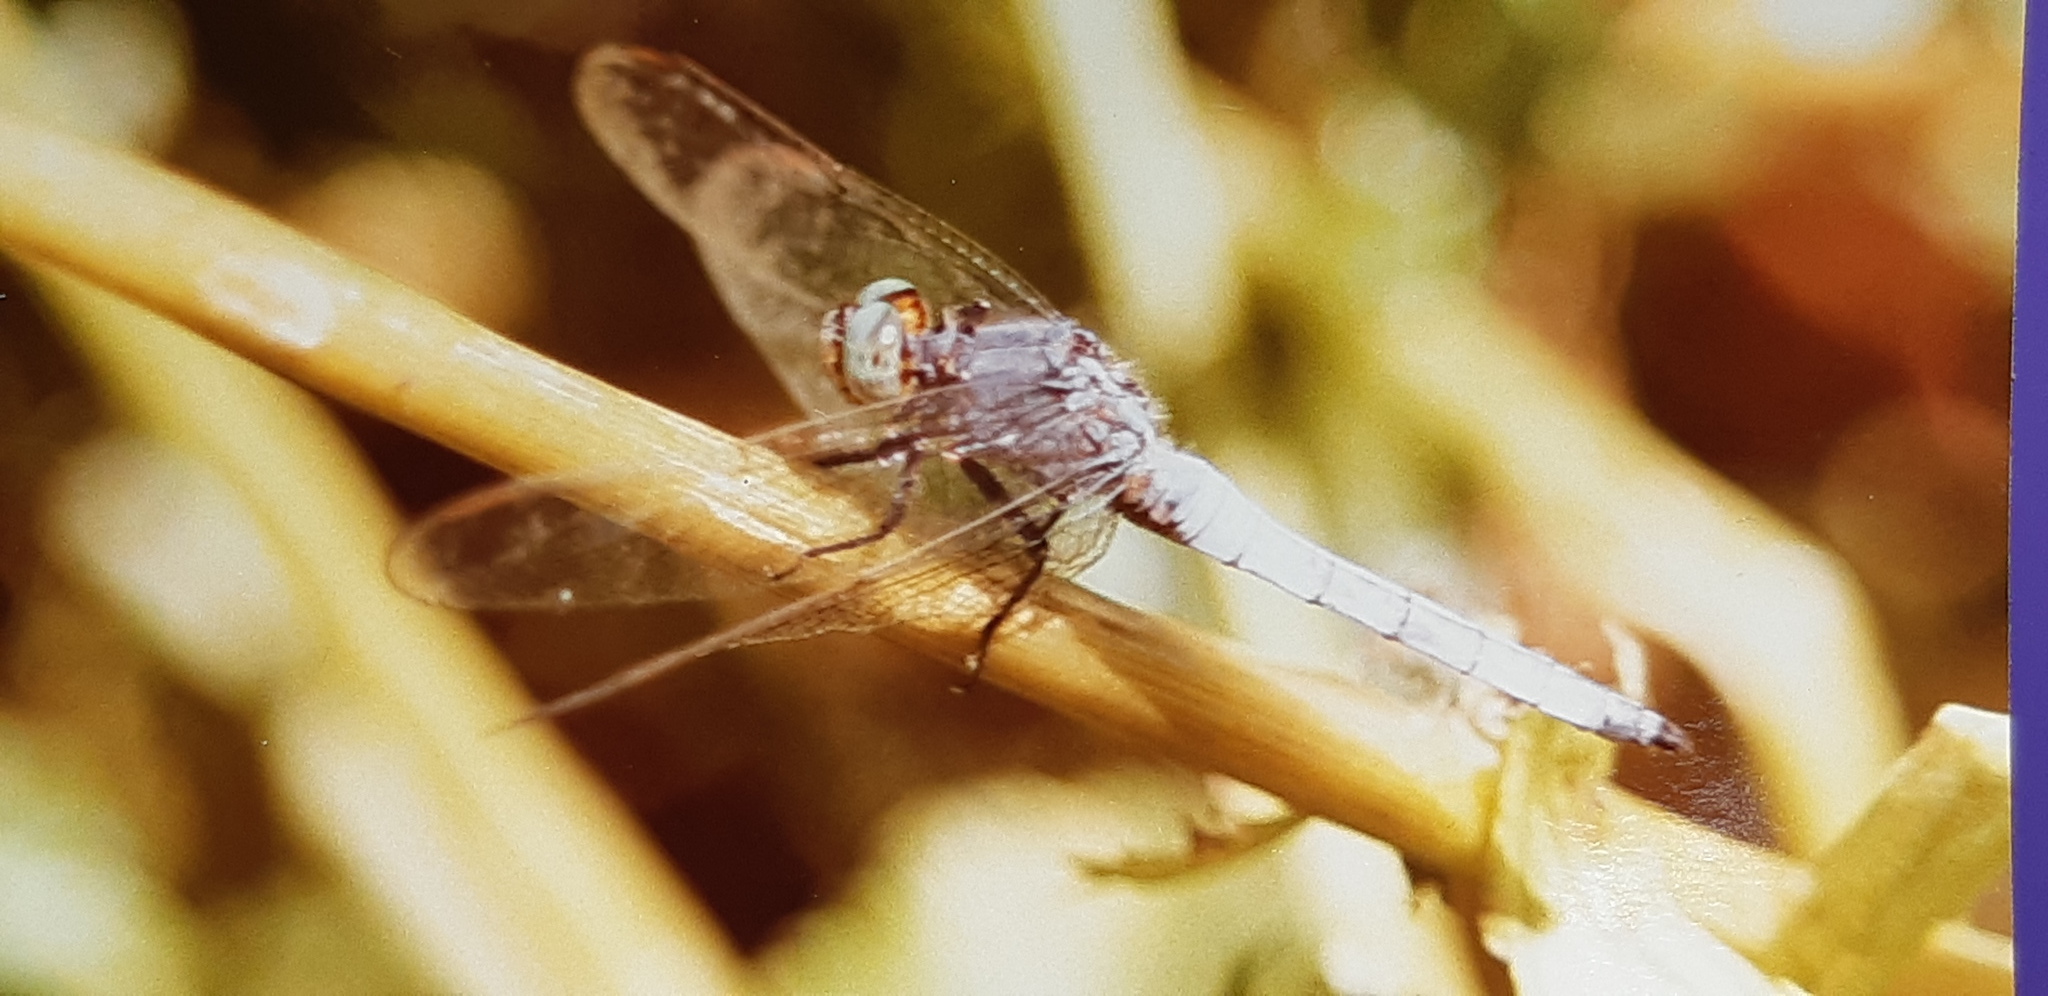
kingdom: Animalia
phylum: Arthropoda
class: Insecta
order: Odonata
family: Libellulidae
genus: Orthetrum
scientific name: Orthetrum coerulescens
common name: Keeled skimmer
